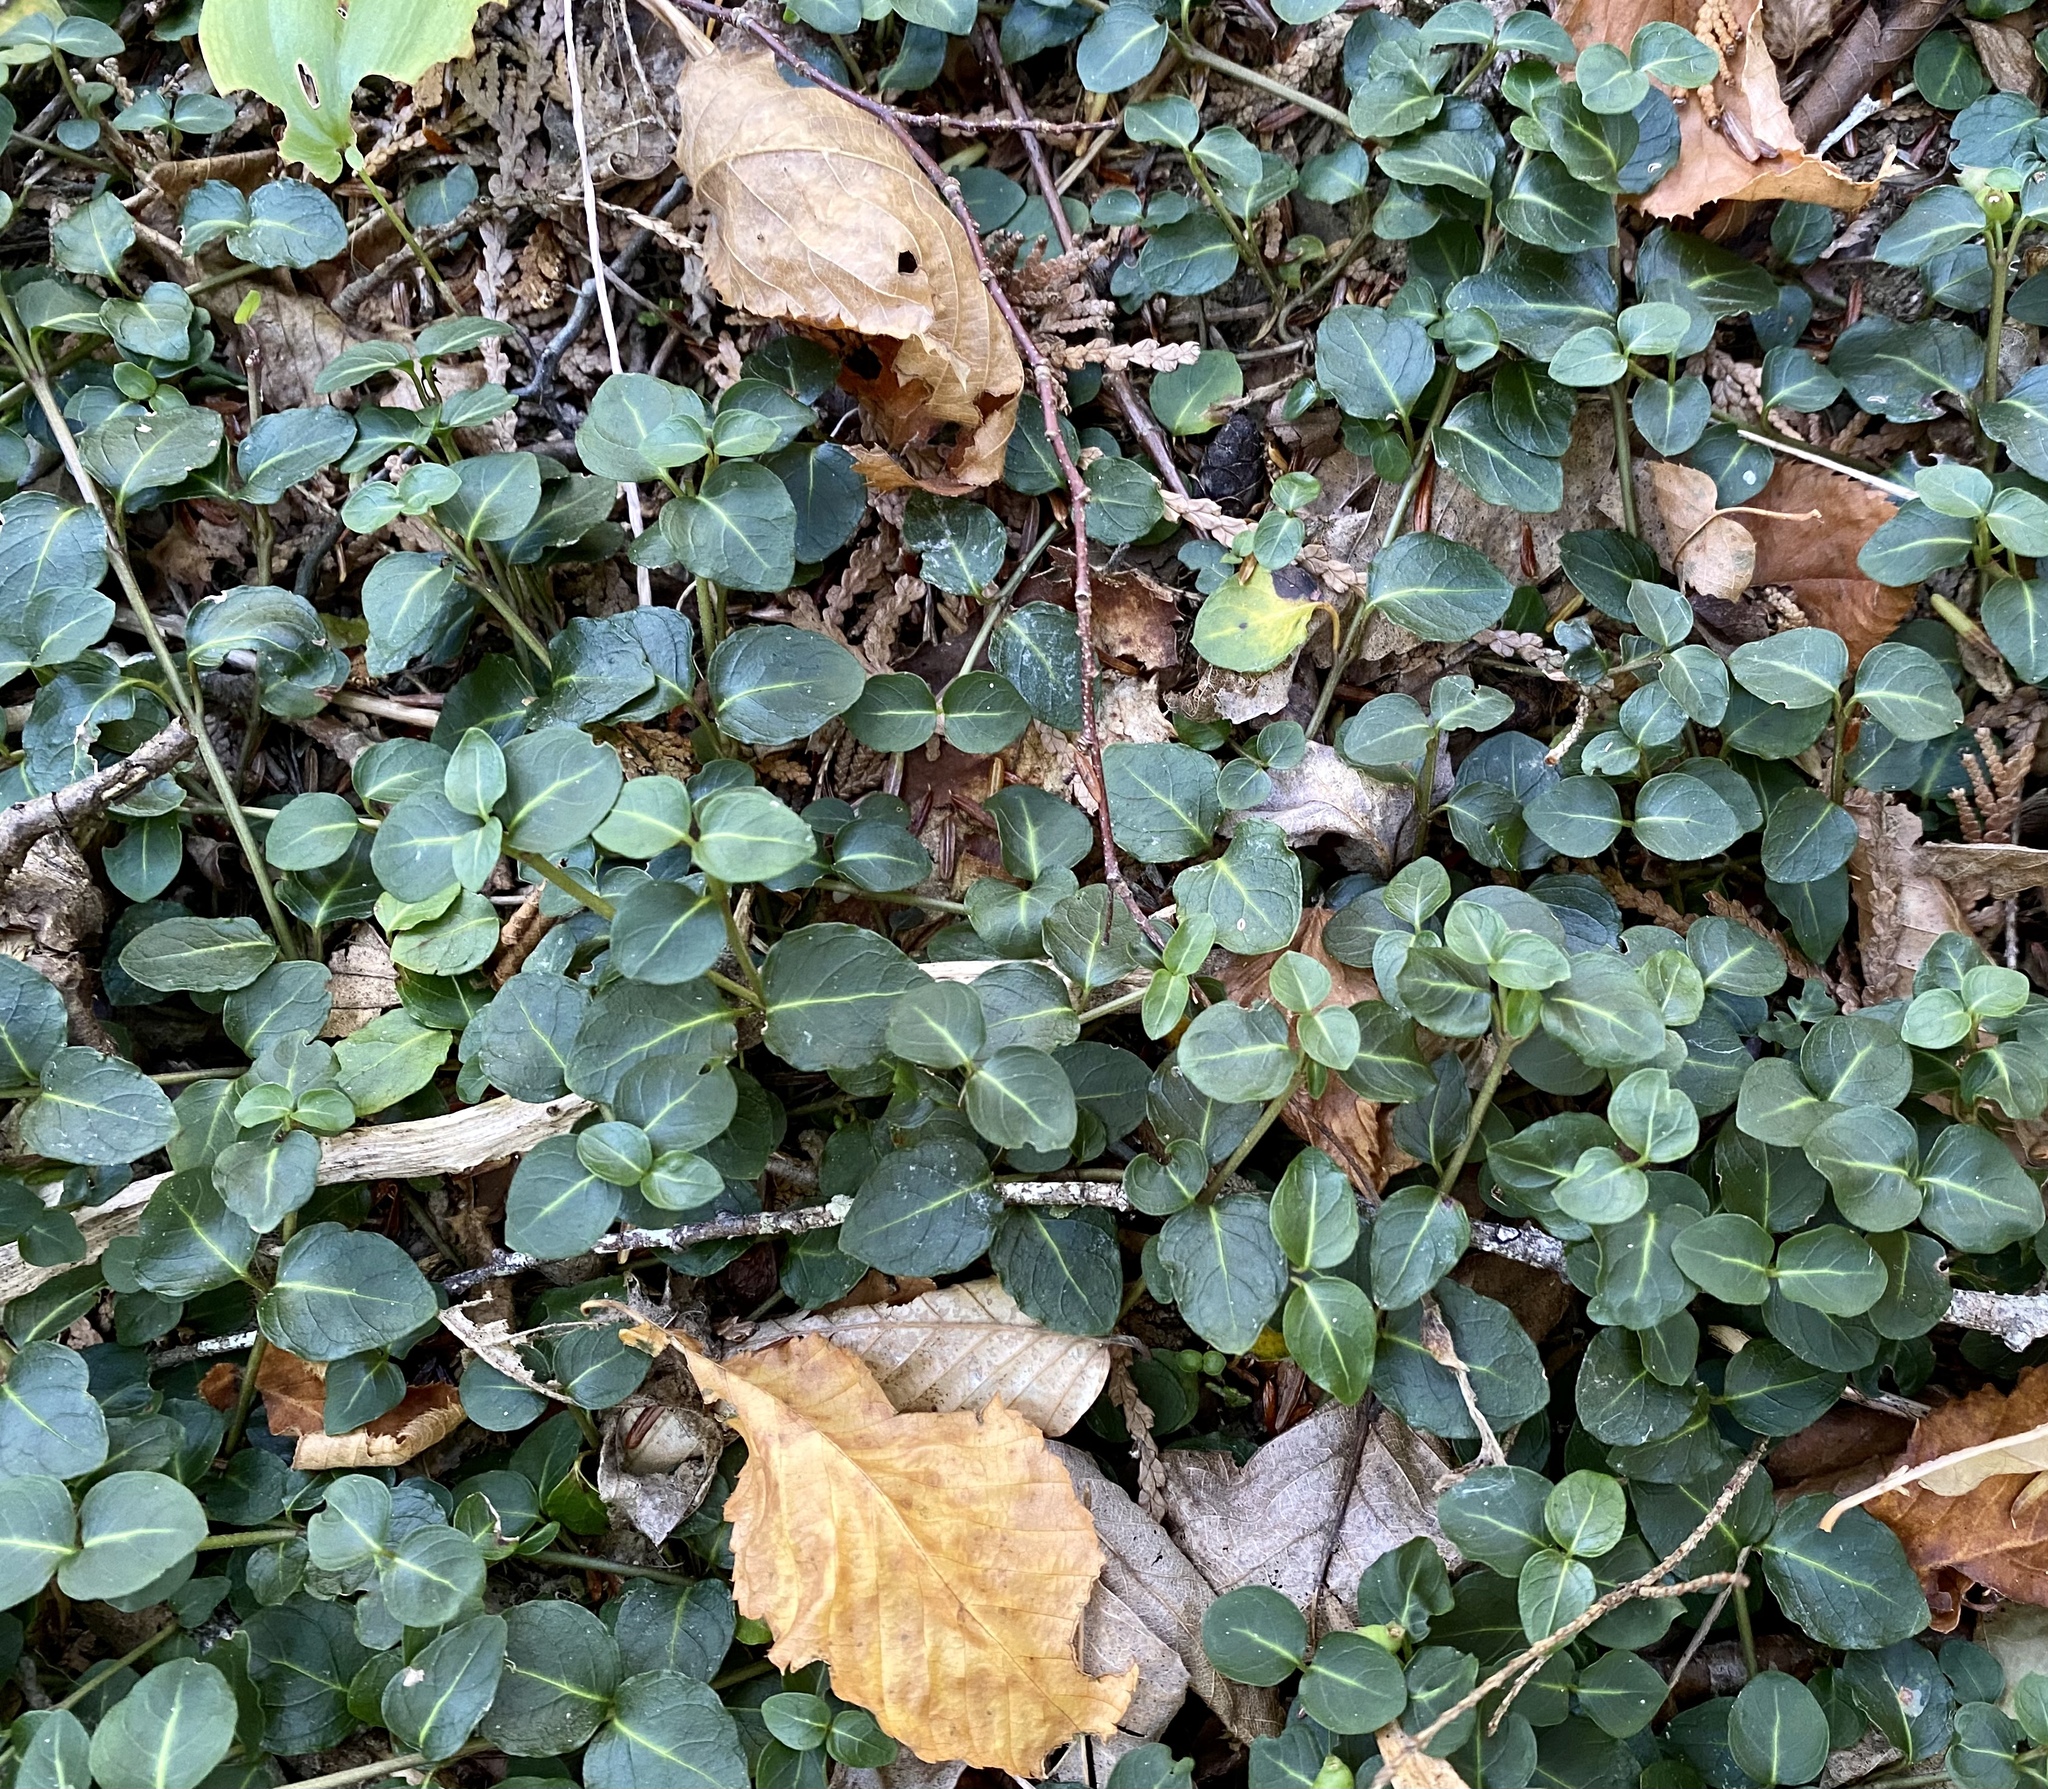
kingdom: Plantae
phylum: Tracheophyta
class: Magnoliopsida
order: Gentianales
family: Rubiaceae
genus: Mitchella
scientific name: Mitchella repens
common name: Partridge-berry
